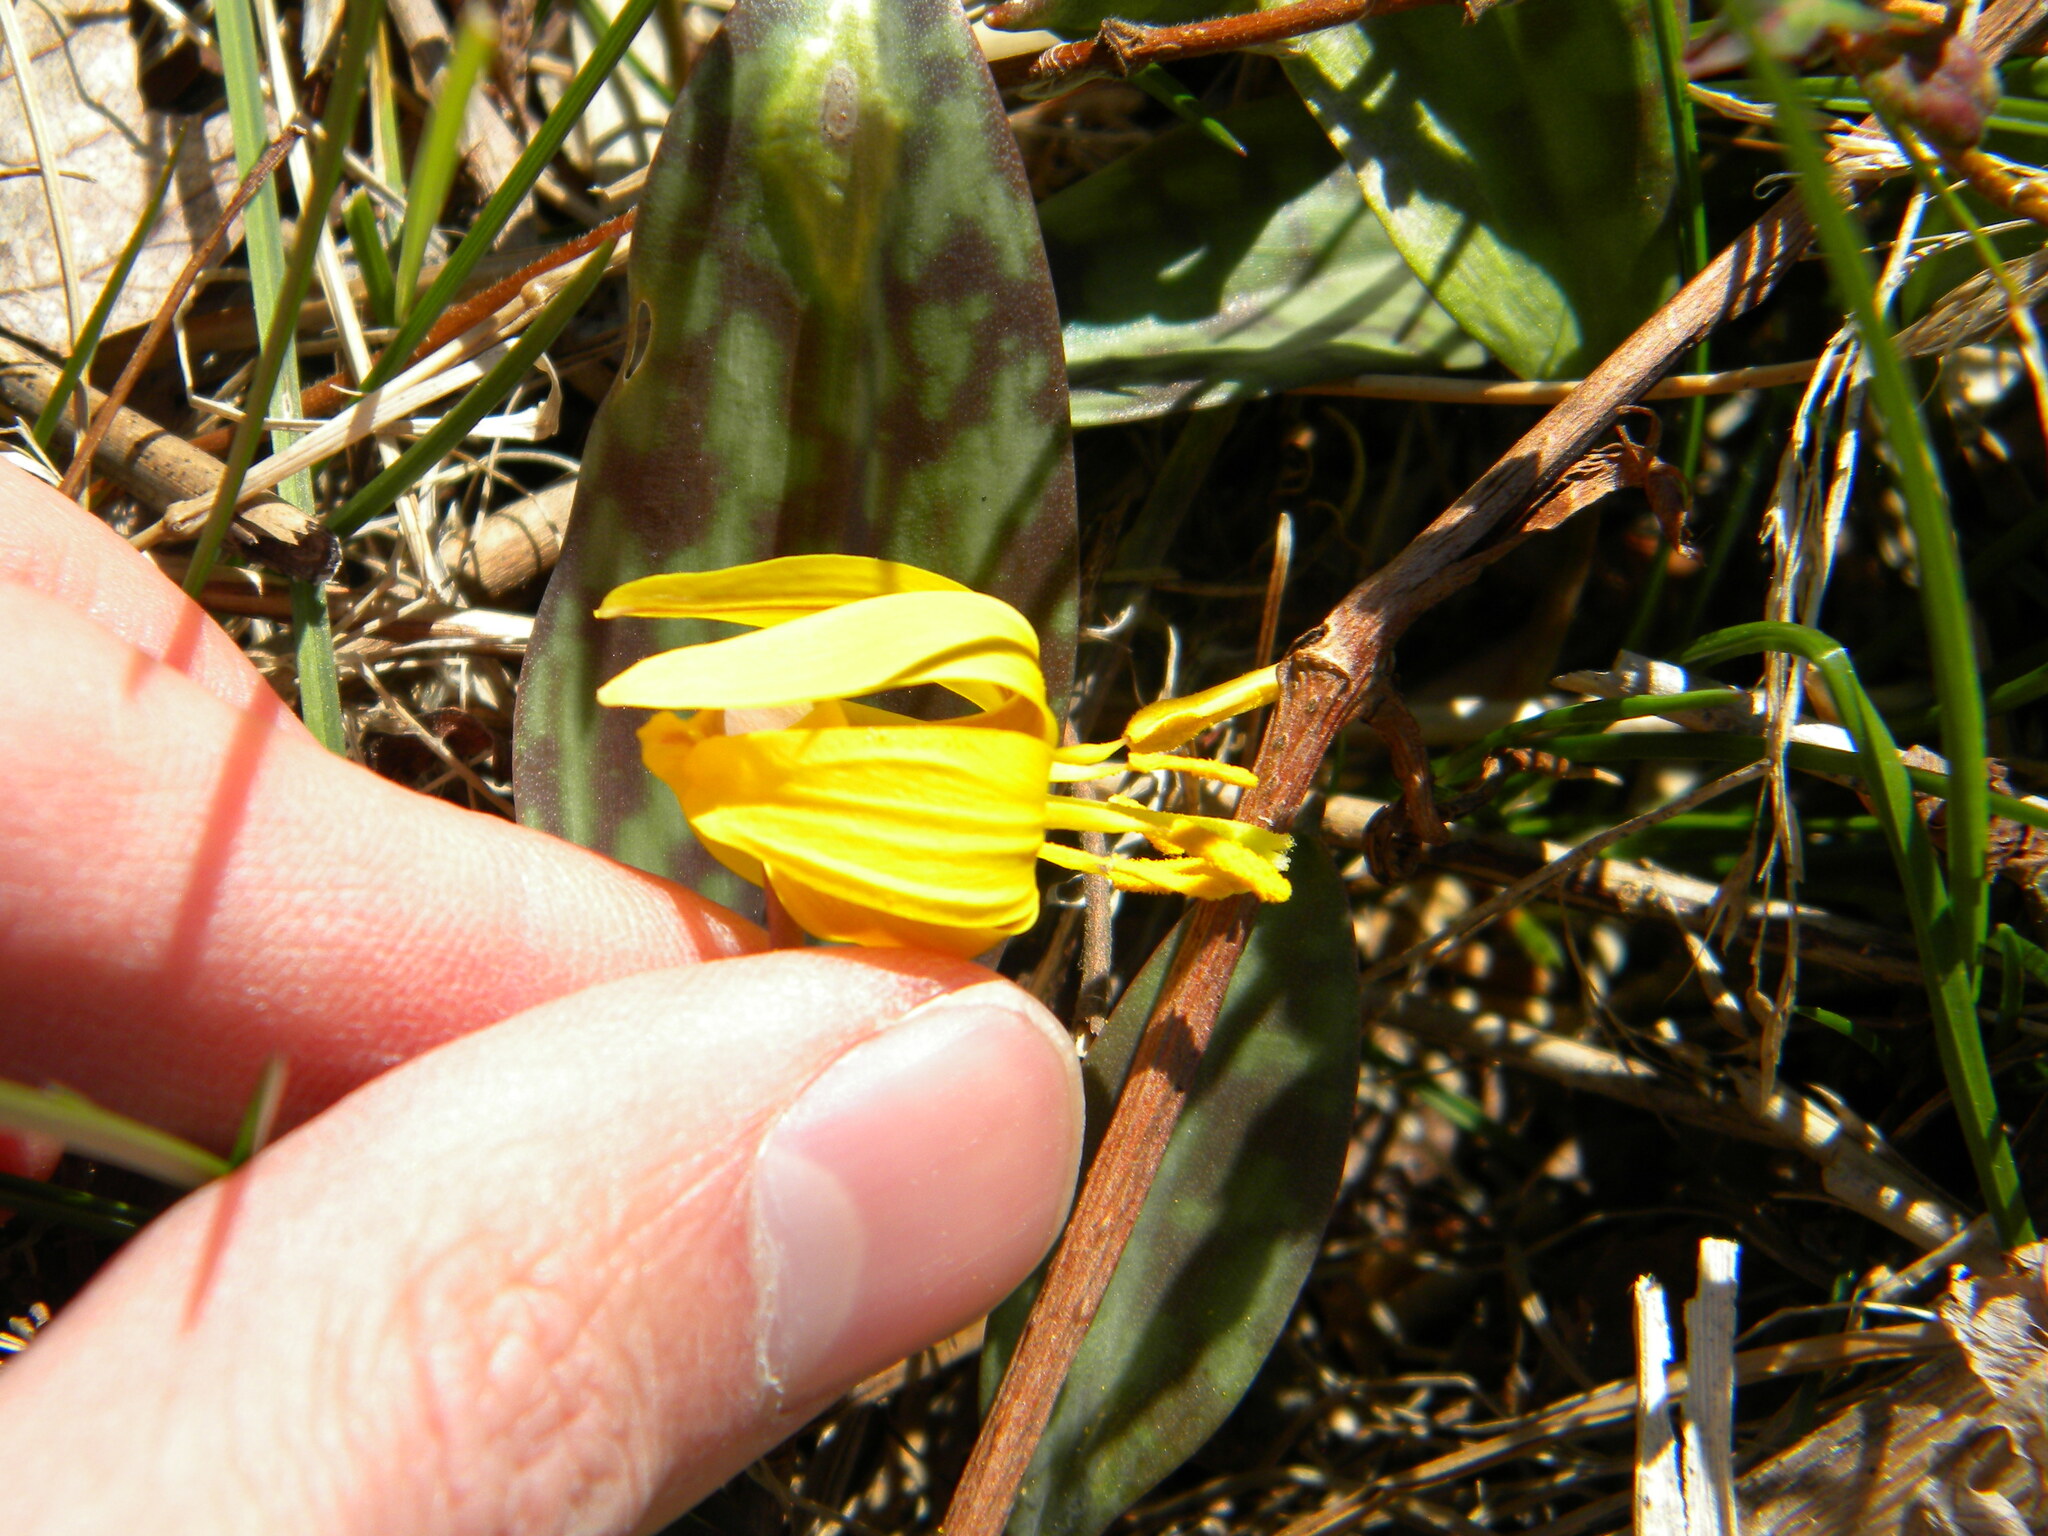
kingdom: Plantae
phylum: Tracheophyta
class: Liliopsida
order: Liliales
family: Liliaceae
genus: Erythronium
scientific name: Erythronium americanum
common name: Yellow adder's-tongue
